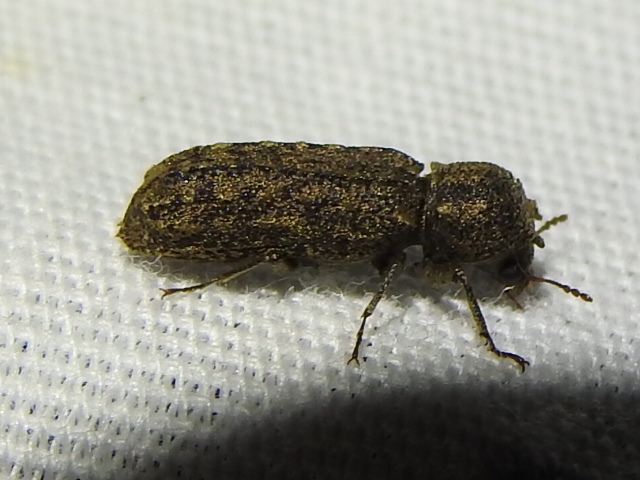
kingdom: Animalia
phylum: Arthropoda
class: Insecta
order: Coleoptera
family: Bostrichidae
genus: Lichenophanes
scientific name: Lichenophanes bicornis
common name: Two-horned powder-post beetle
